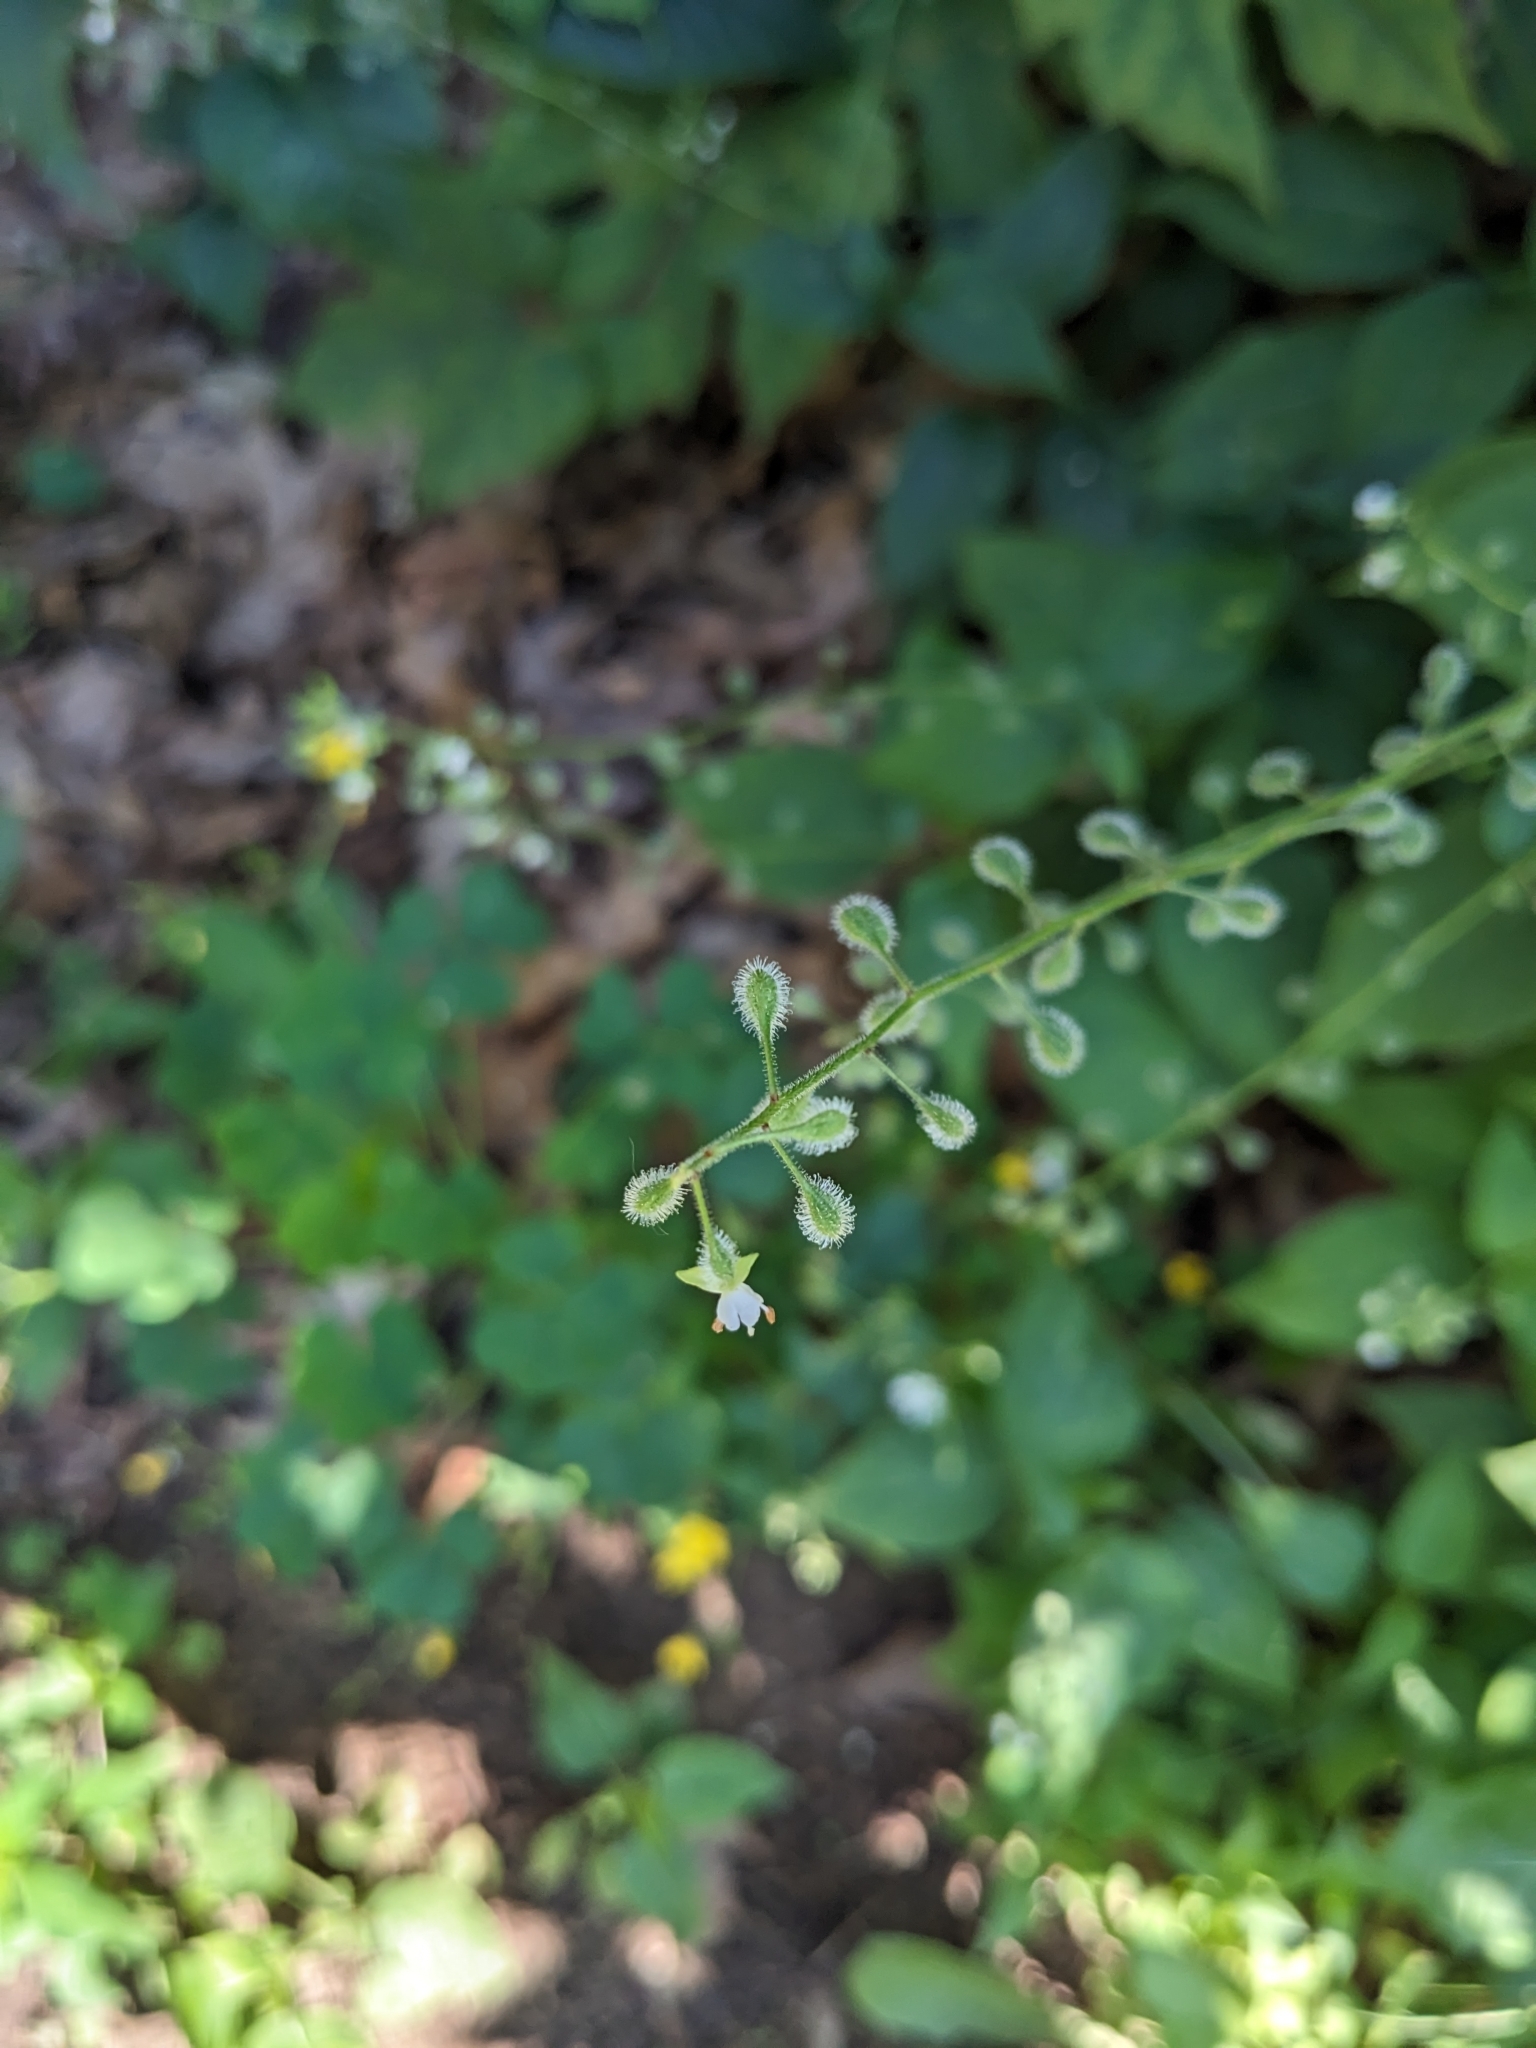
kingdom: Plantae
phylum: Tracheophyta
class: Magnoliopsida
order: Myrtales
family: Onagraceae
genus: Circaea
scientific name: Circaea canadensis
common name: Broad-leaved enchanter's nightshade
